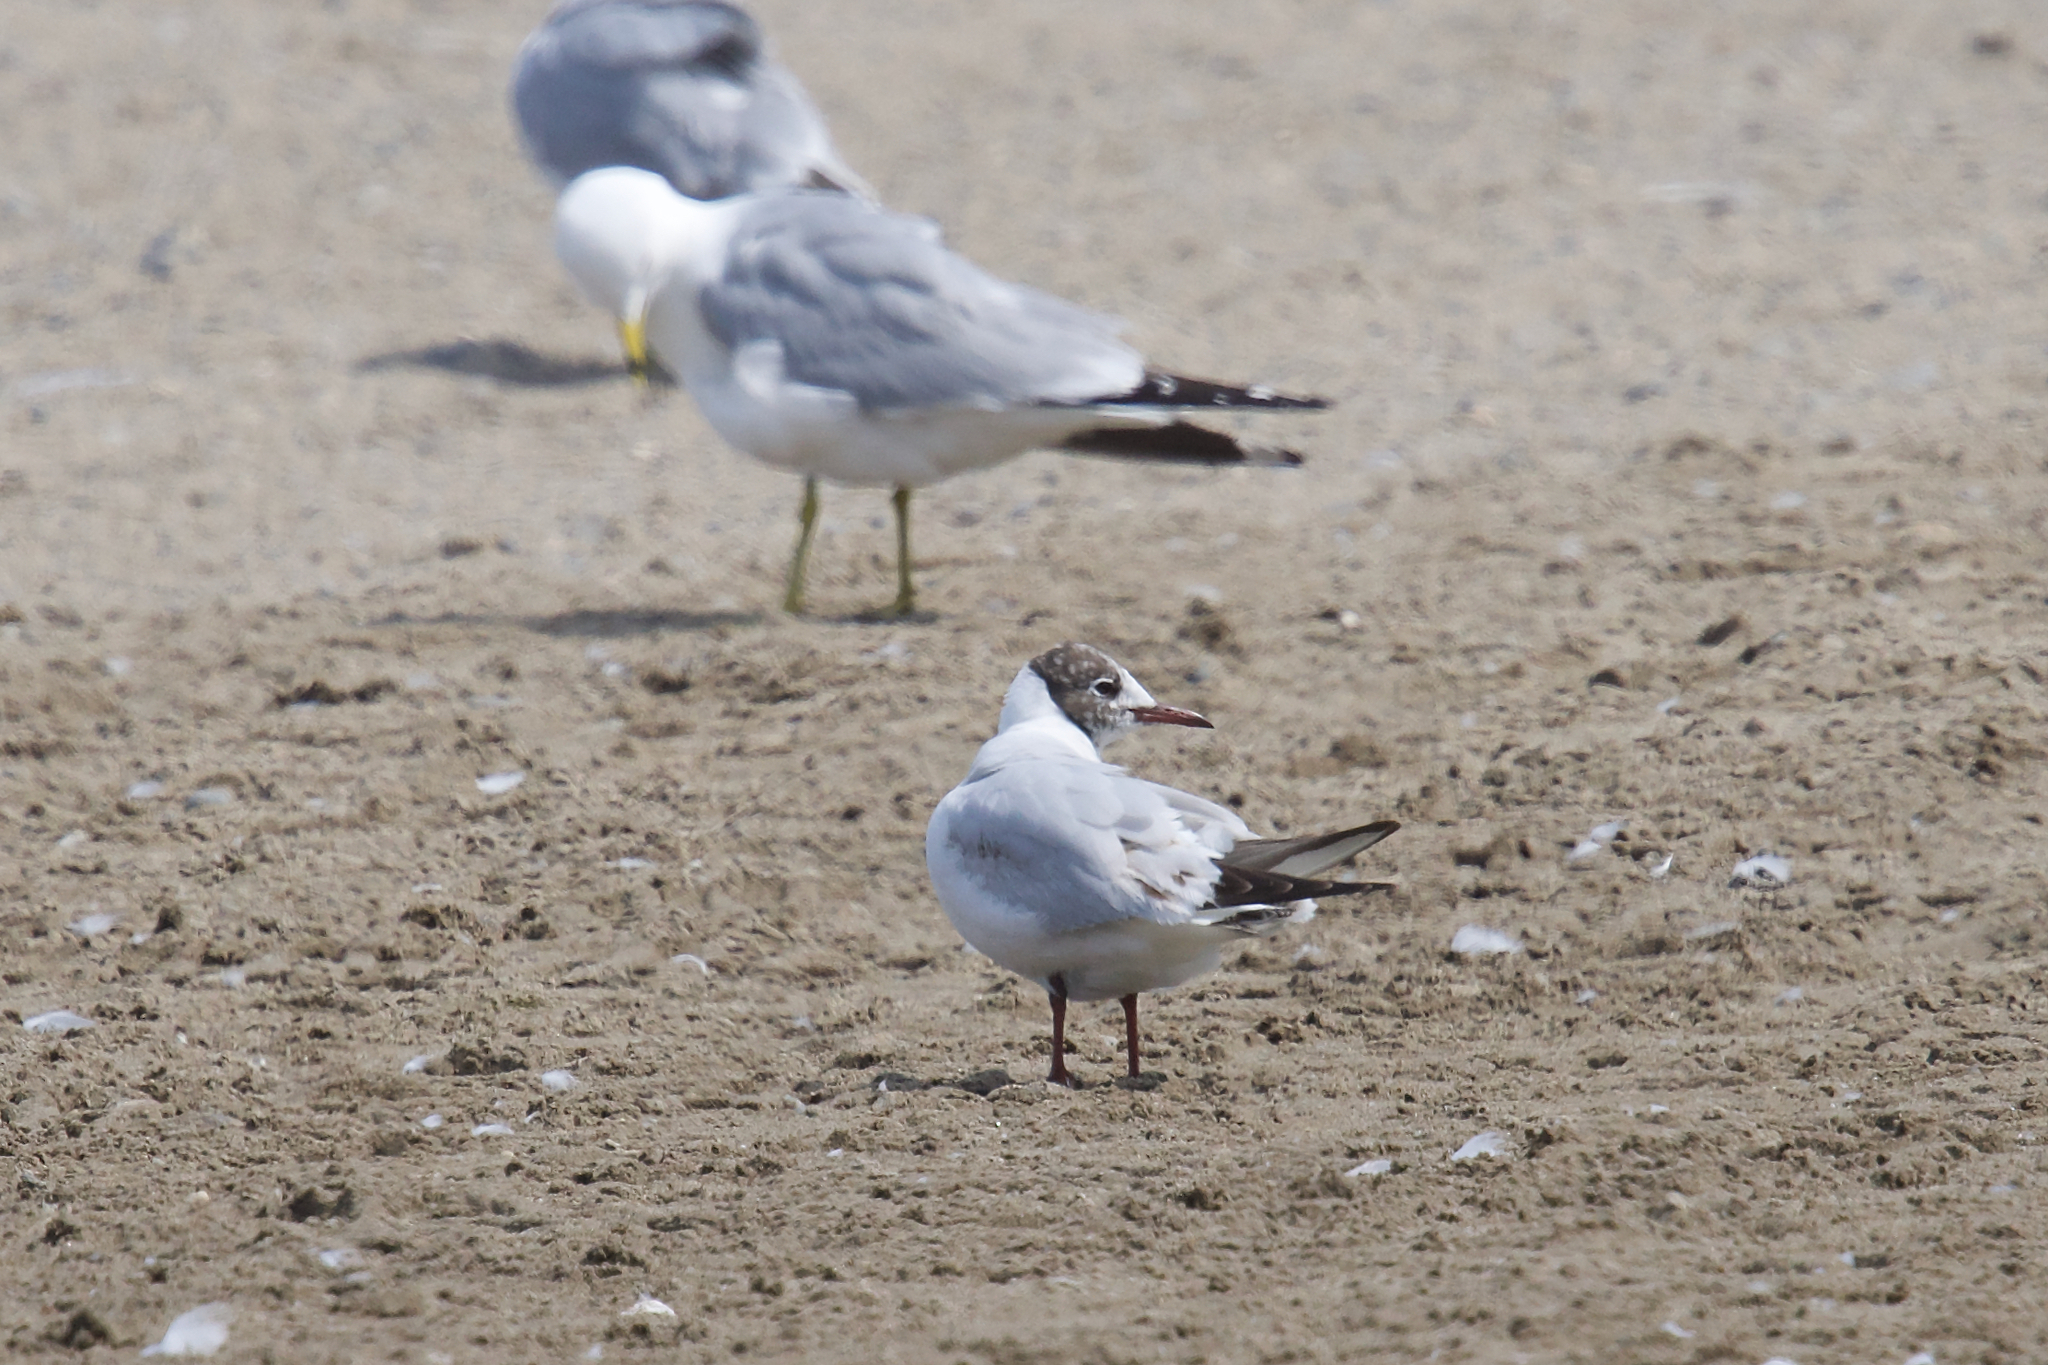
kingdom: Animalia
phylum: Chordata
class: Aves
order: Charadriiformes
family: Laridae
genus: Chroicocephalus
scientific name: Chroicocephalus ridibundus
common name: Black-headed gull
